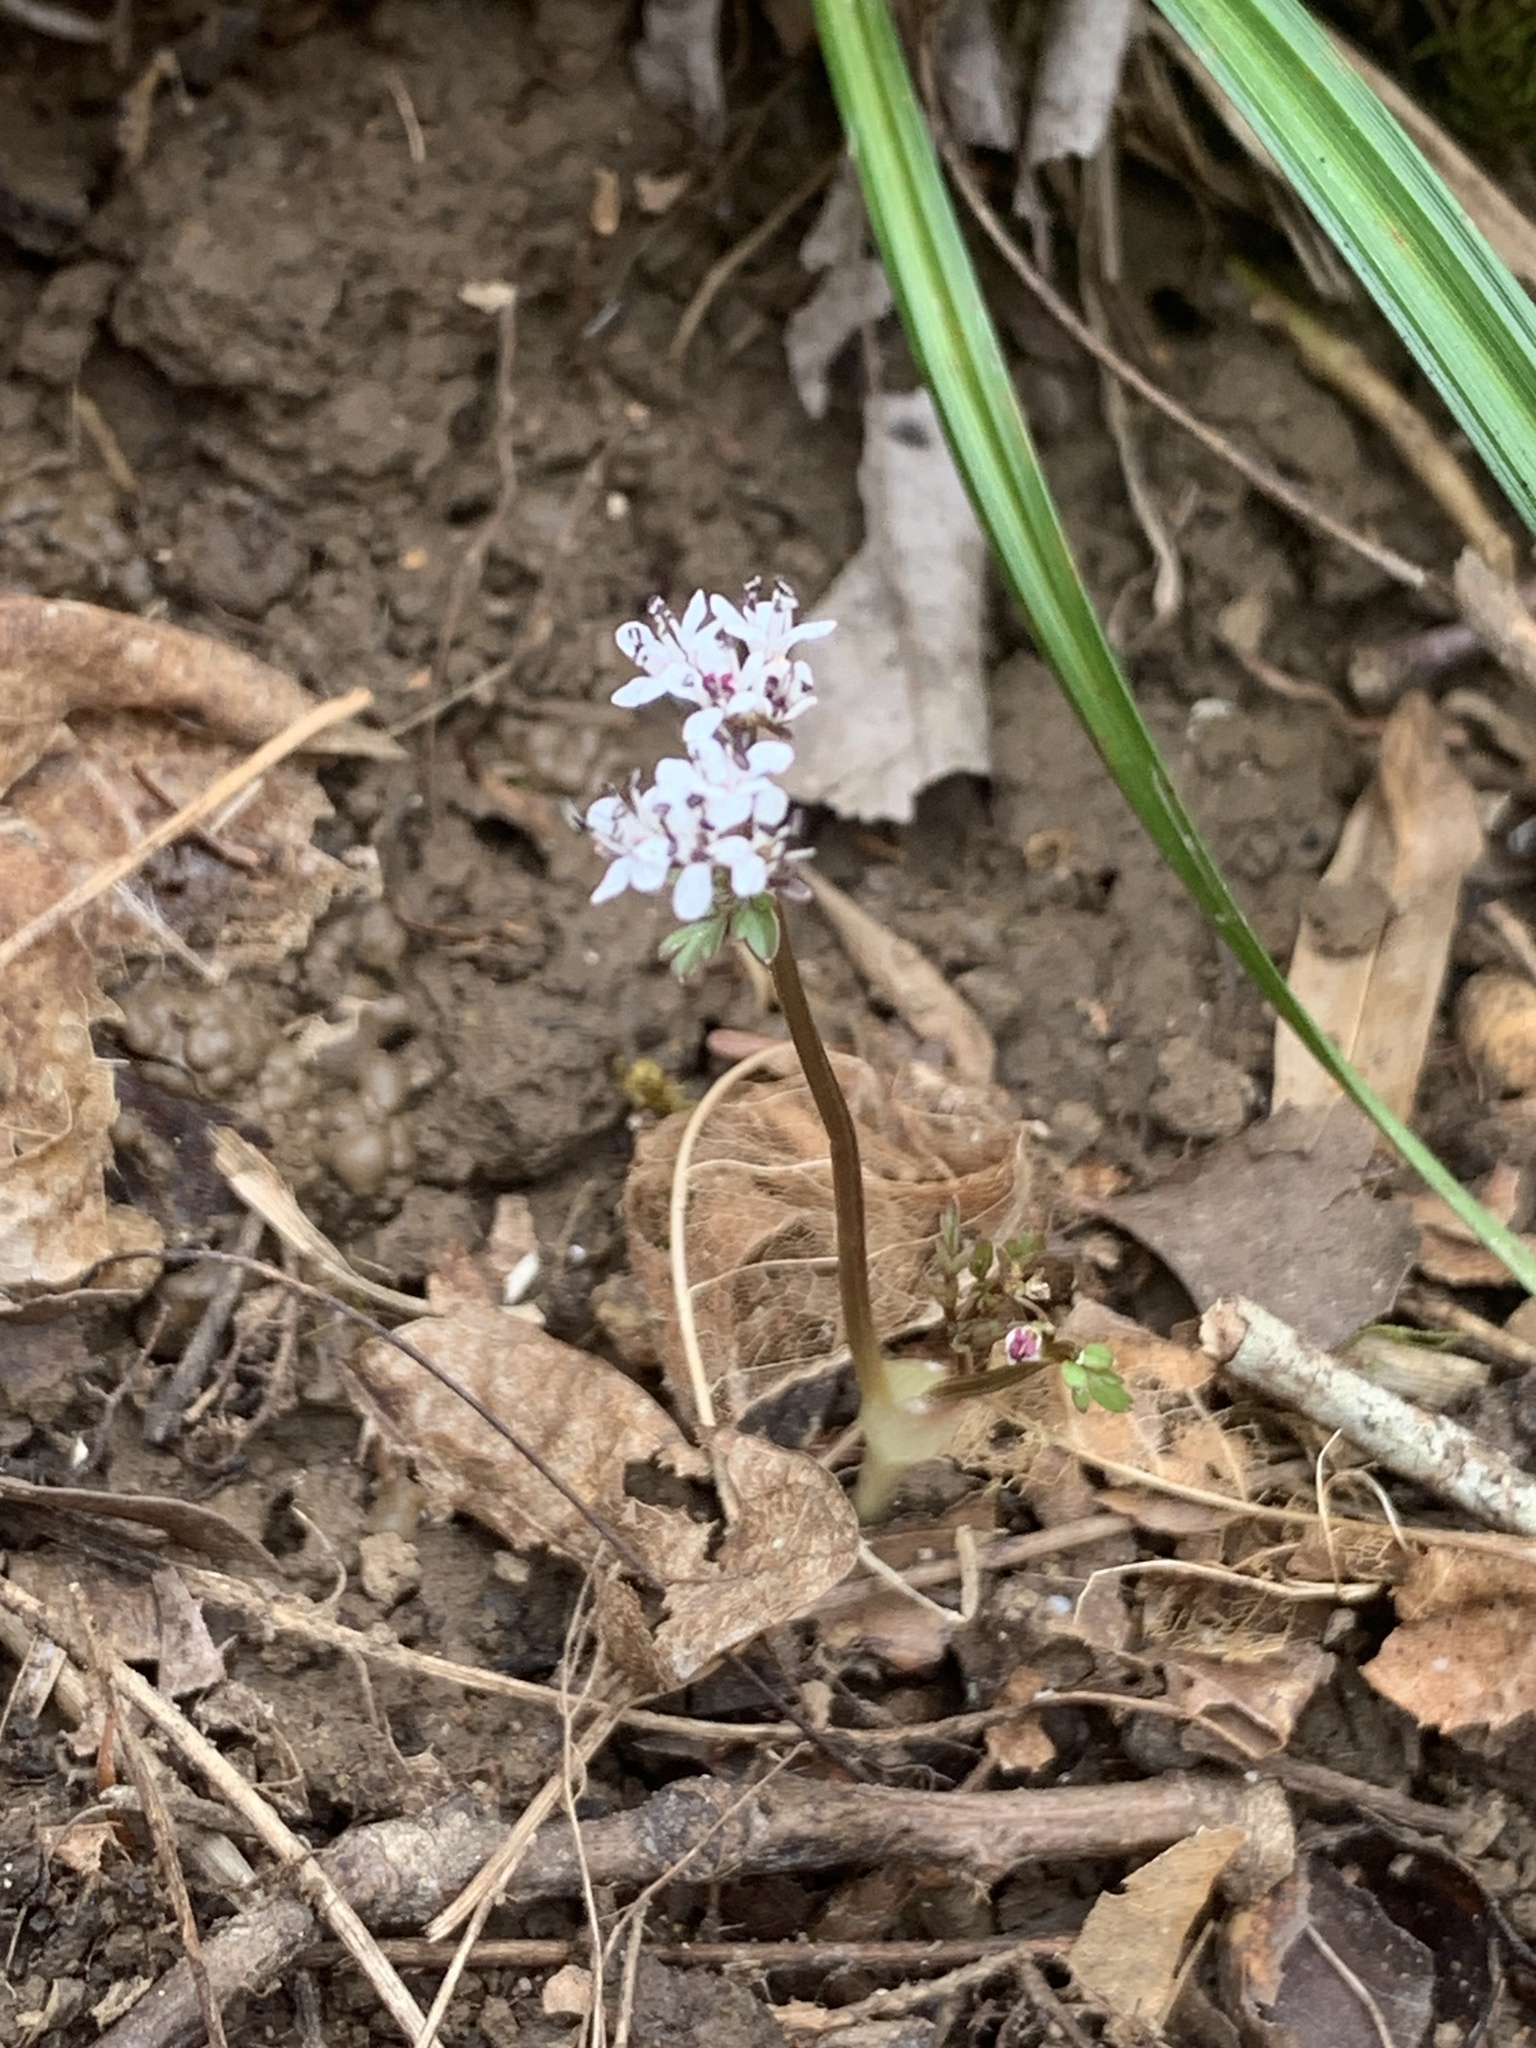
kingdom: Plantae
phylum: Tracheophyta
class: Magnoliopsida
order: Apiales
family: Apiaceae
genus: Erigenia
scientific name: Erigenia bulbosa
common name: Pepper-and-salt
